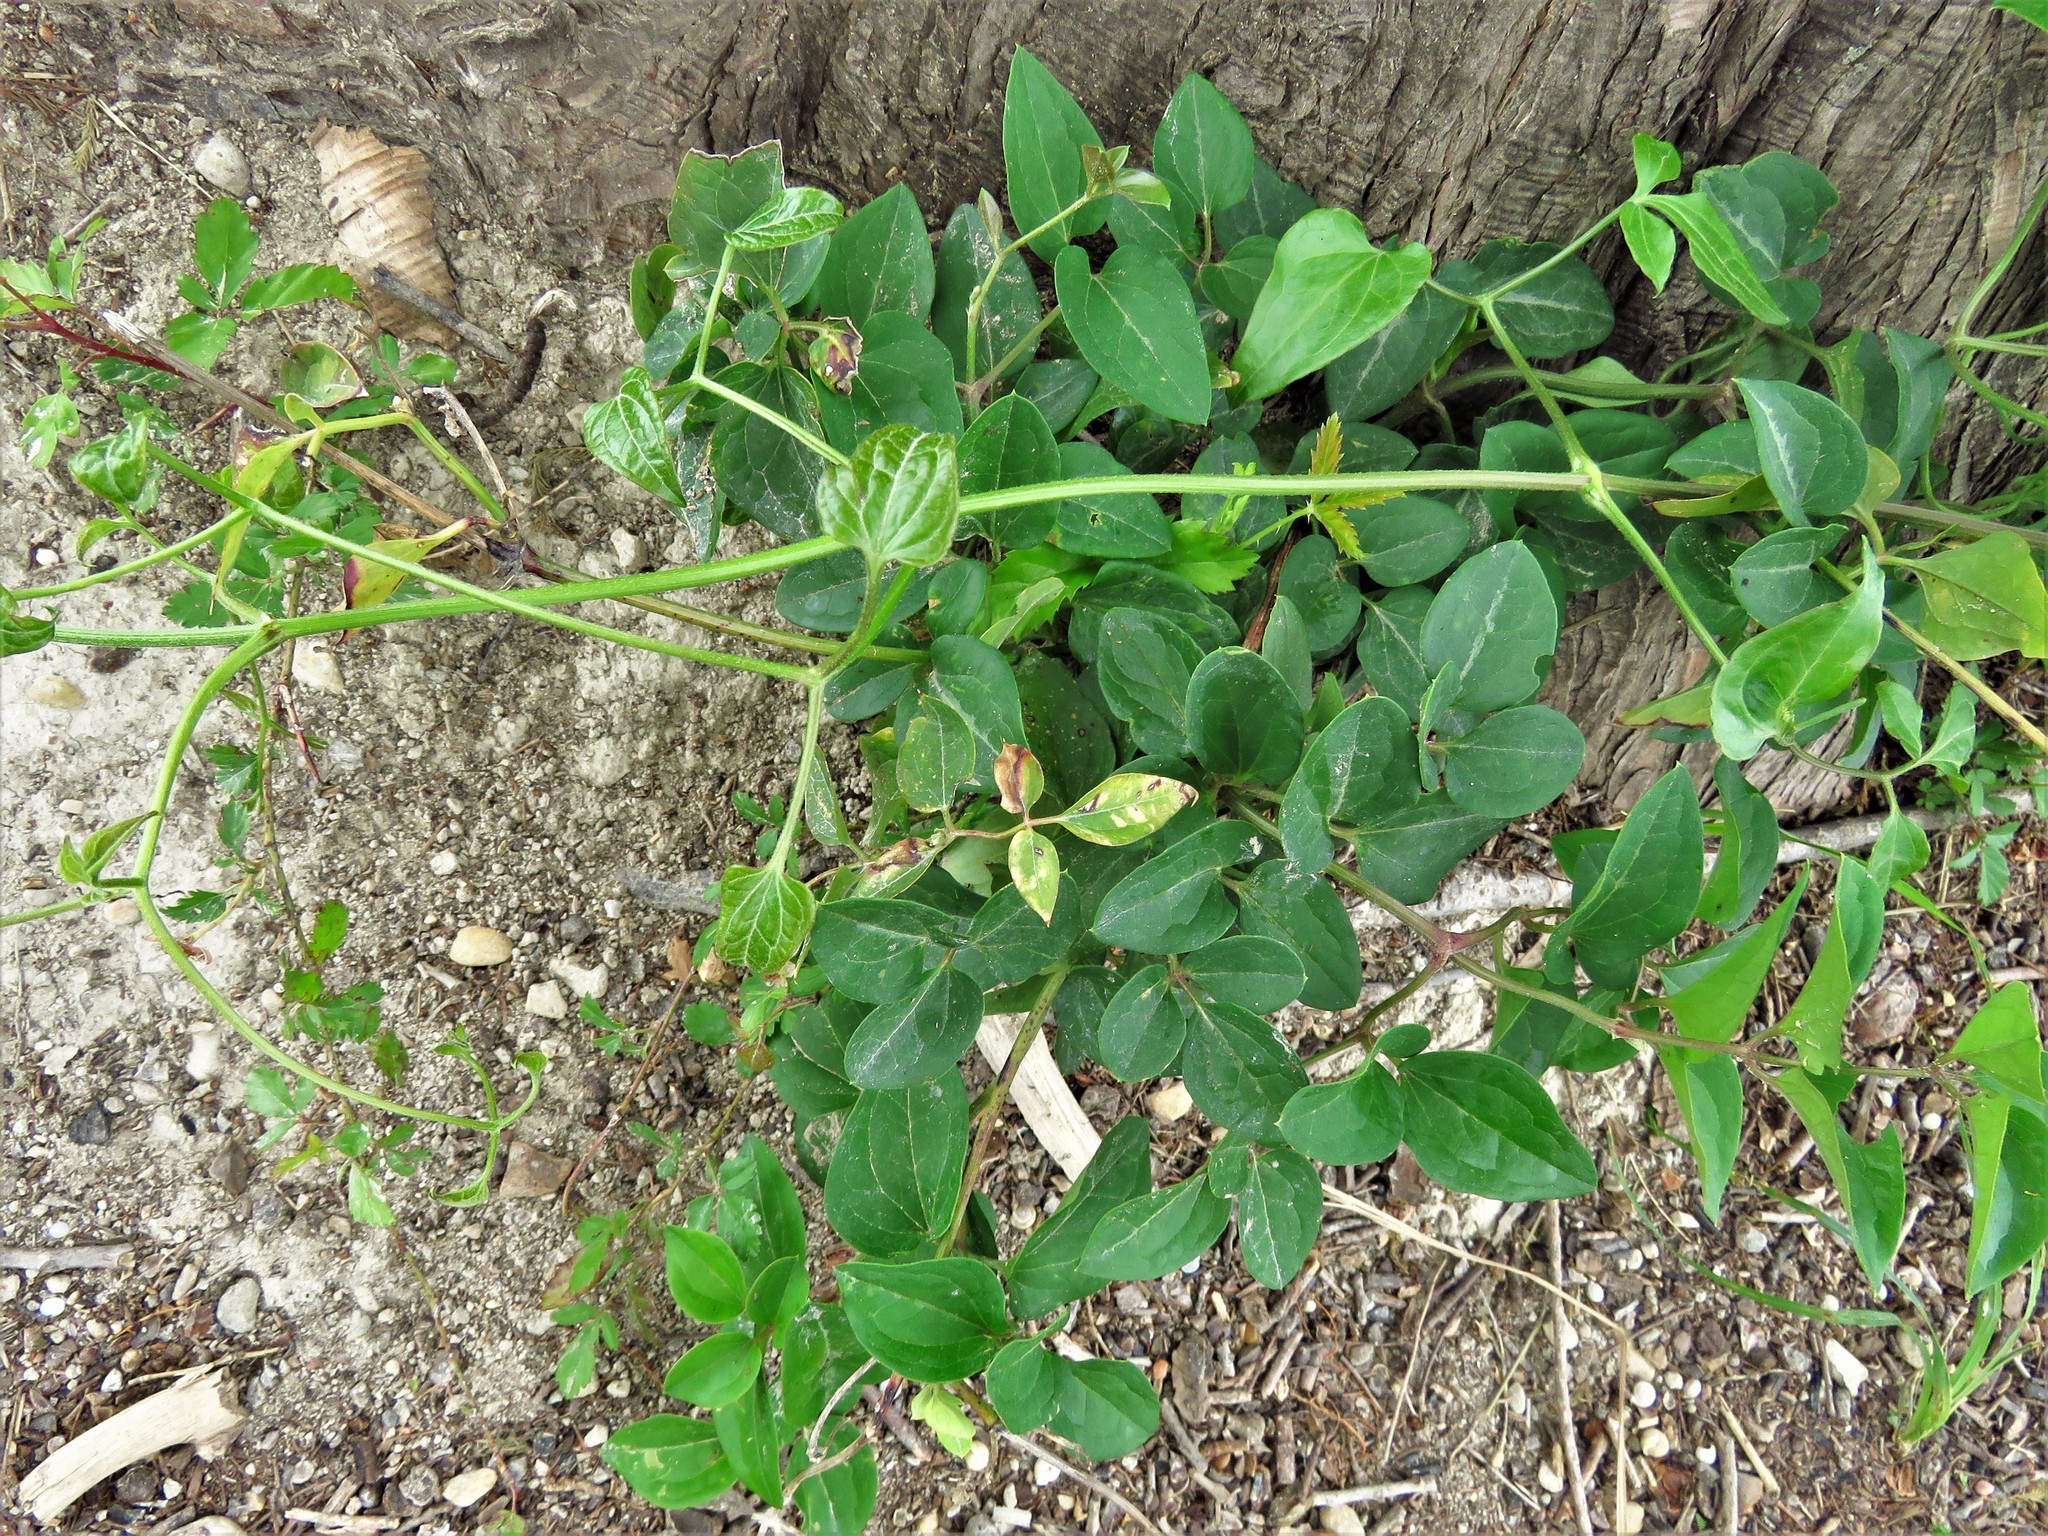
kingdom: Plantae
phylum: Tracheophyta
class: Magnoliopsida
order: Ranunculales
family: Ranunculaceae
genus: Clematis
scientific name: Clematis terniflora
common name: Sweet autumn clematis
